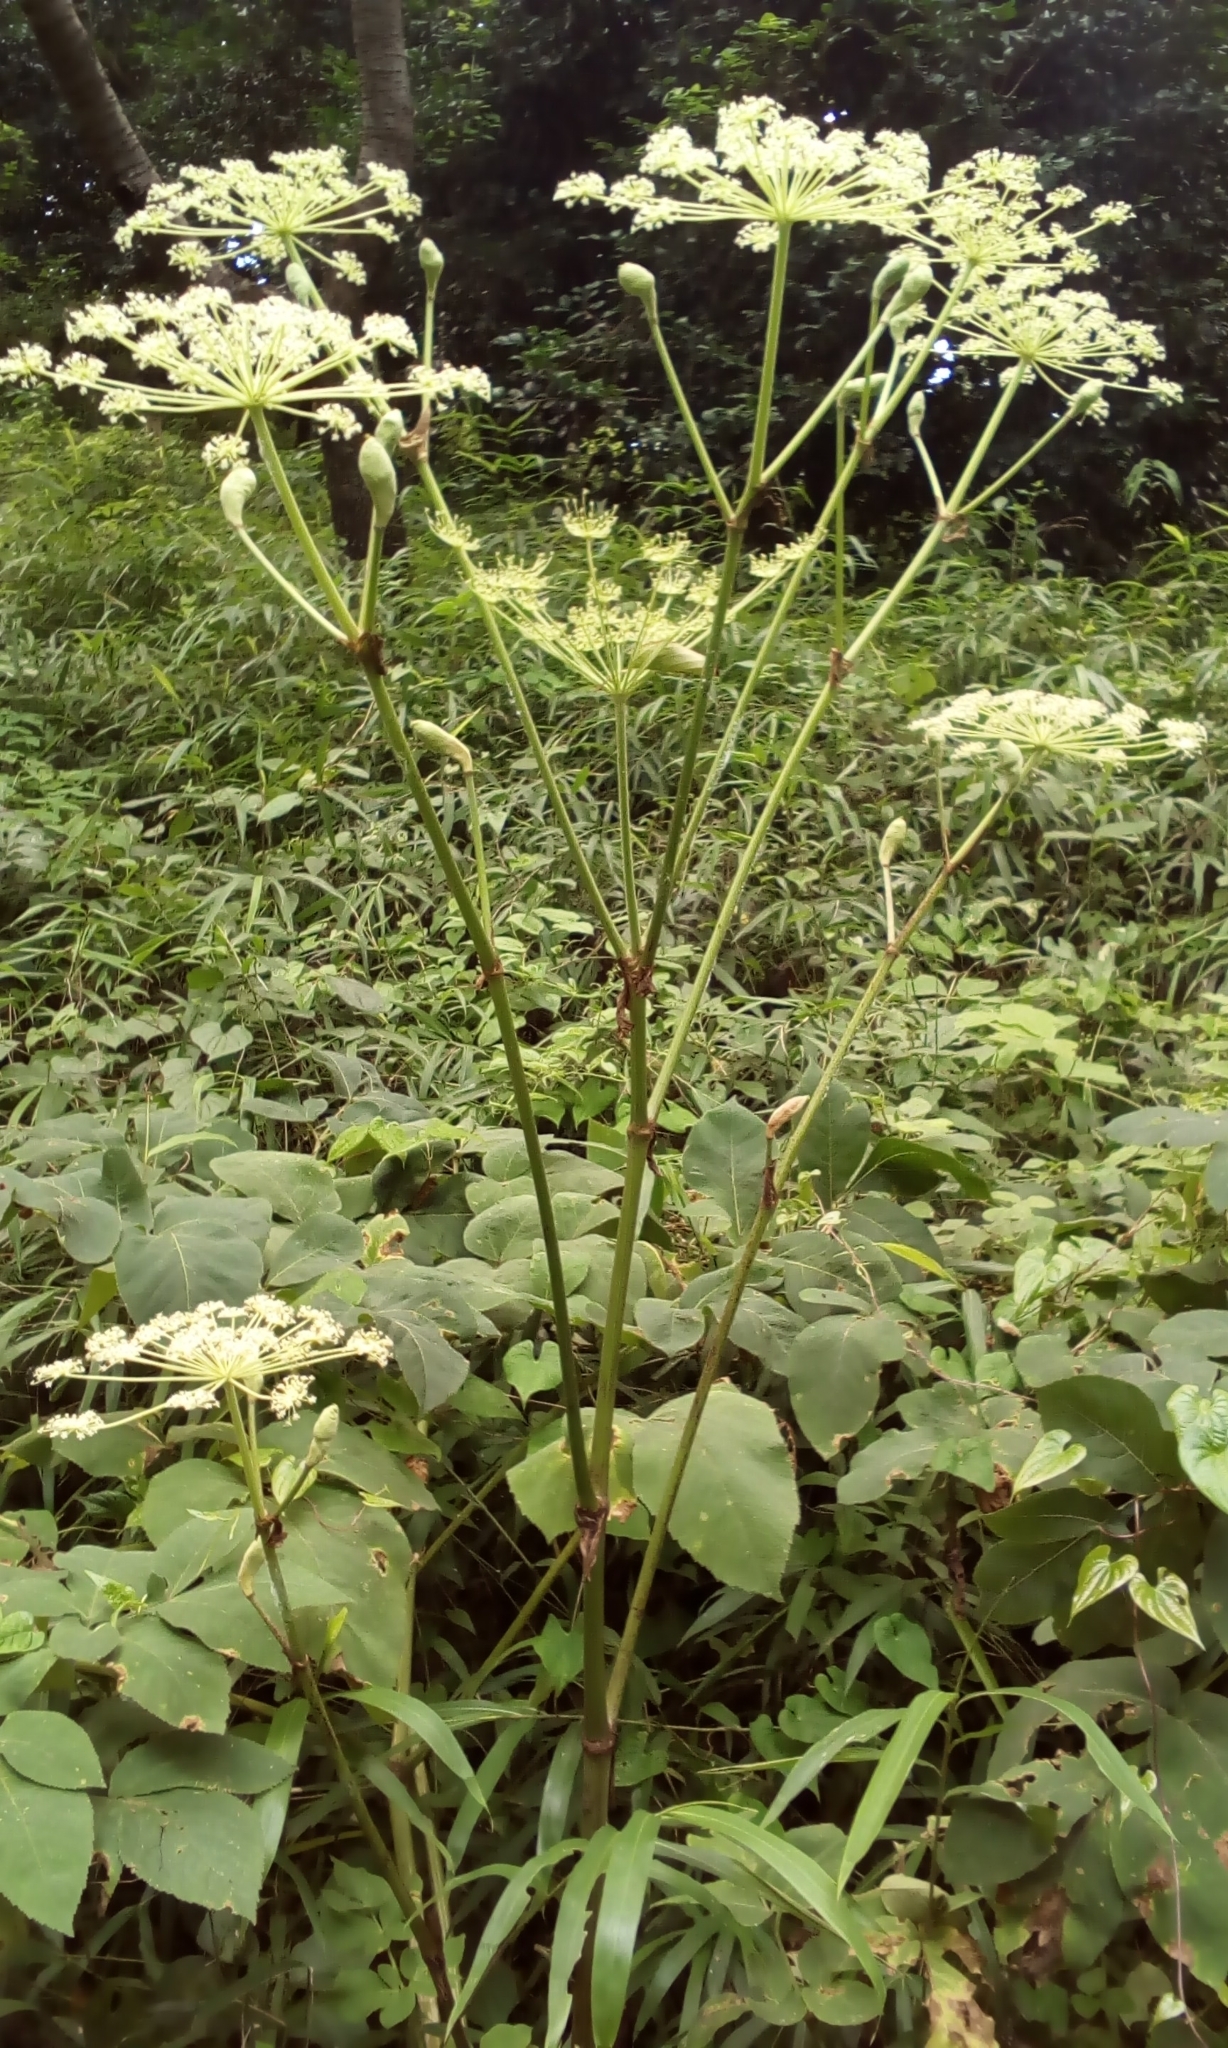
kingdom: Plantae
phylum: Tracheophyta
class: Magnoliopsida
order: Apiales
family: Apiaceae
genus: Angelica
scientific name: Angelica pubescens
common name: Pubescent angelica
